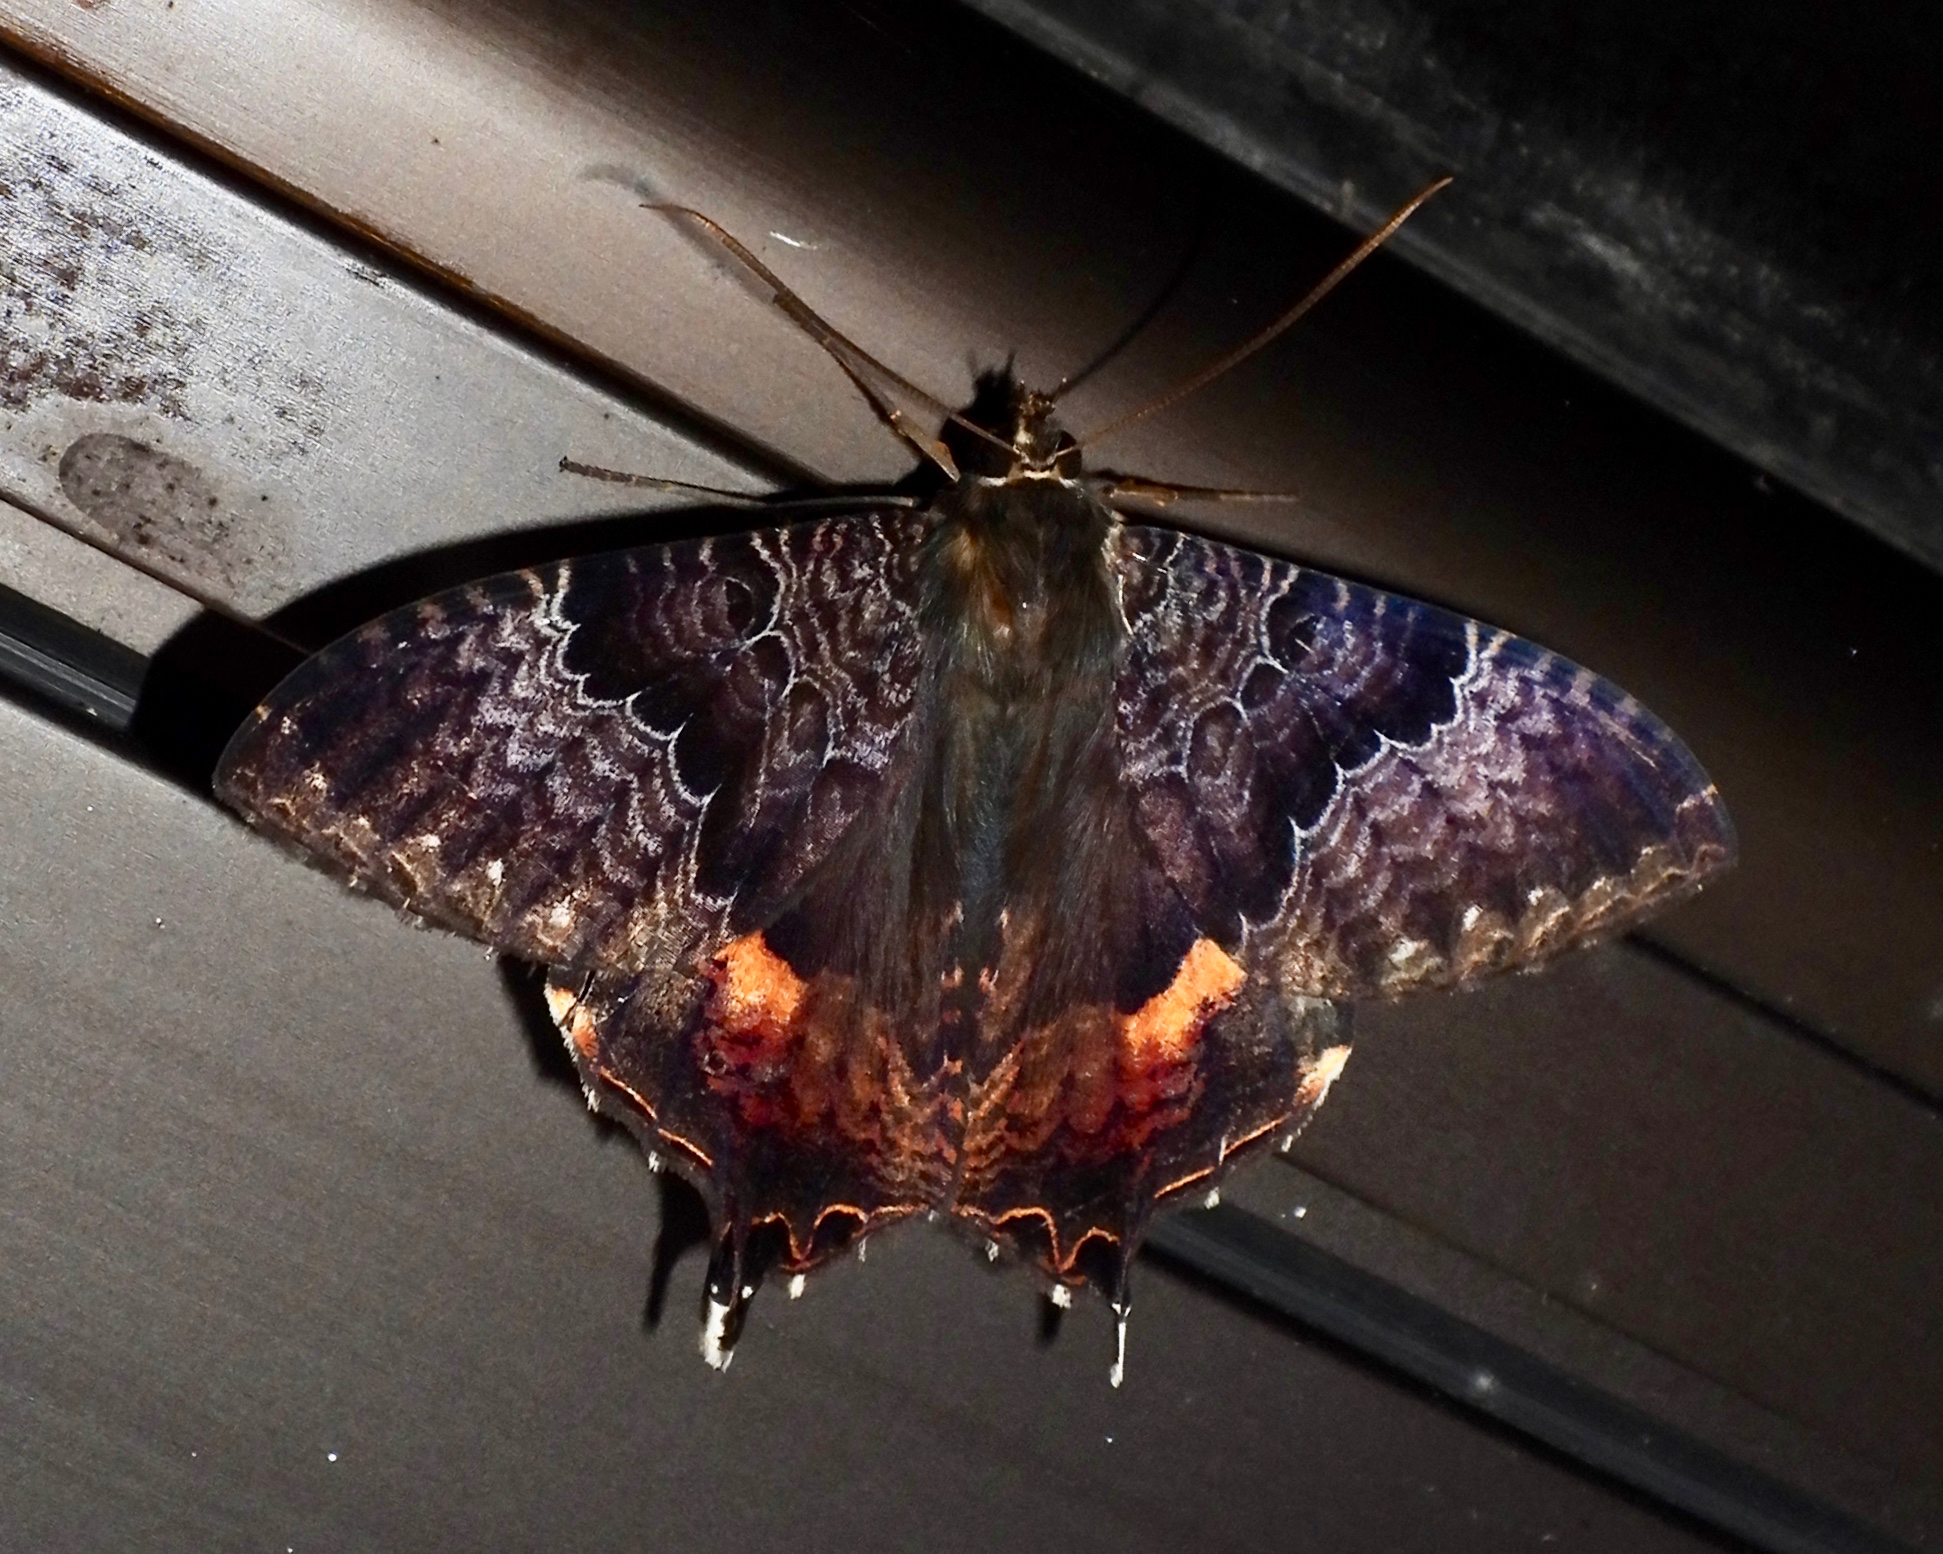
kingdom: Animalia
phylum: Arthropoda
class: Insecta
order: Lepidoptera
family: Sematuridae
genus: Coronidia
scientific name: Coronidia subpicta
